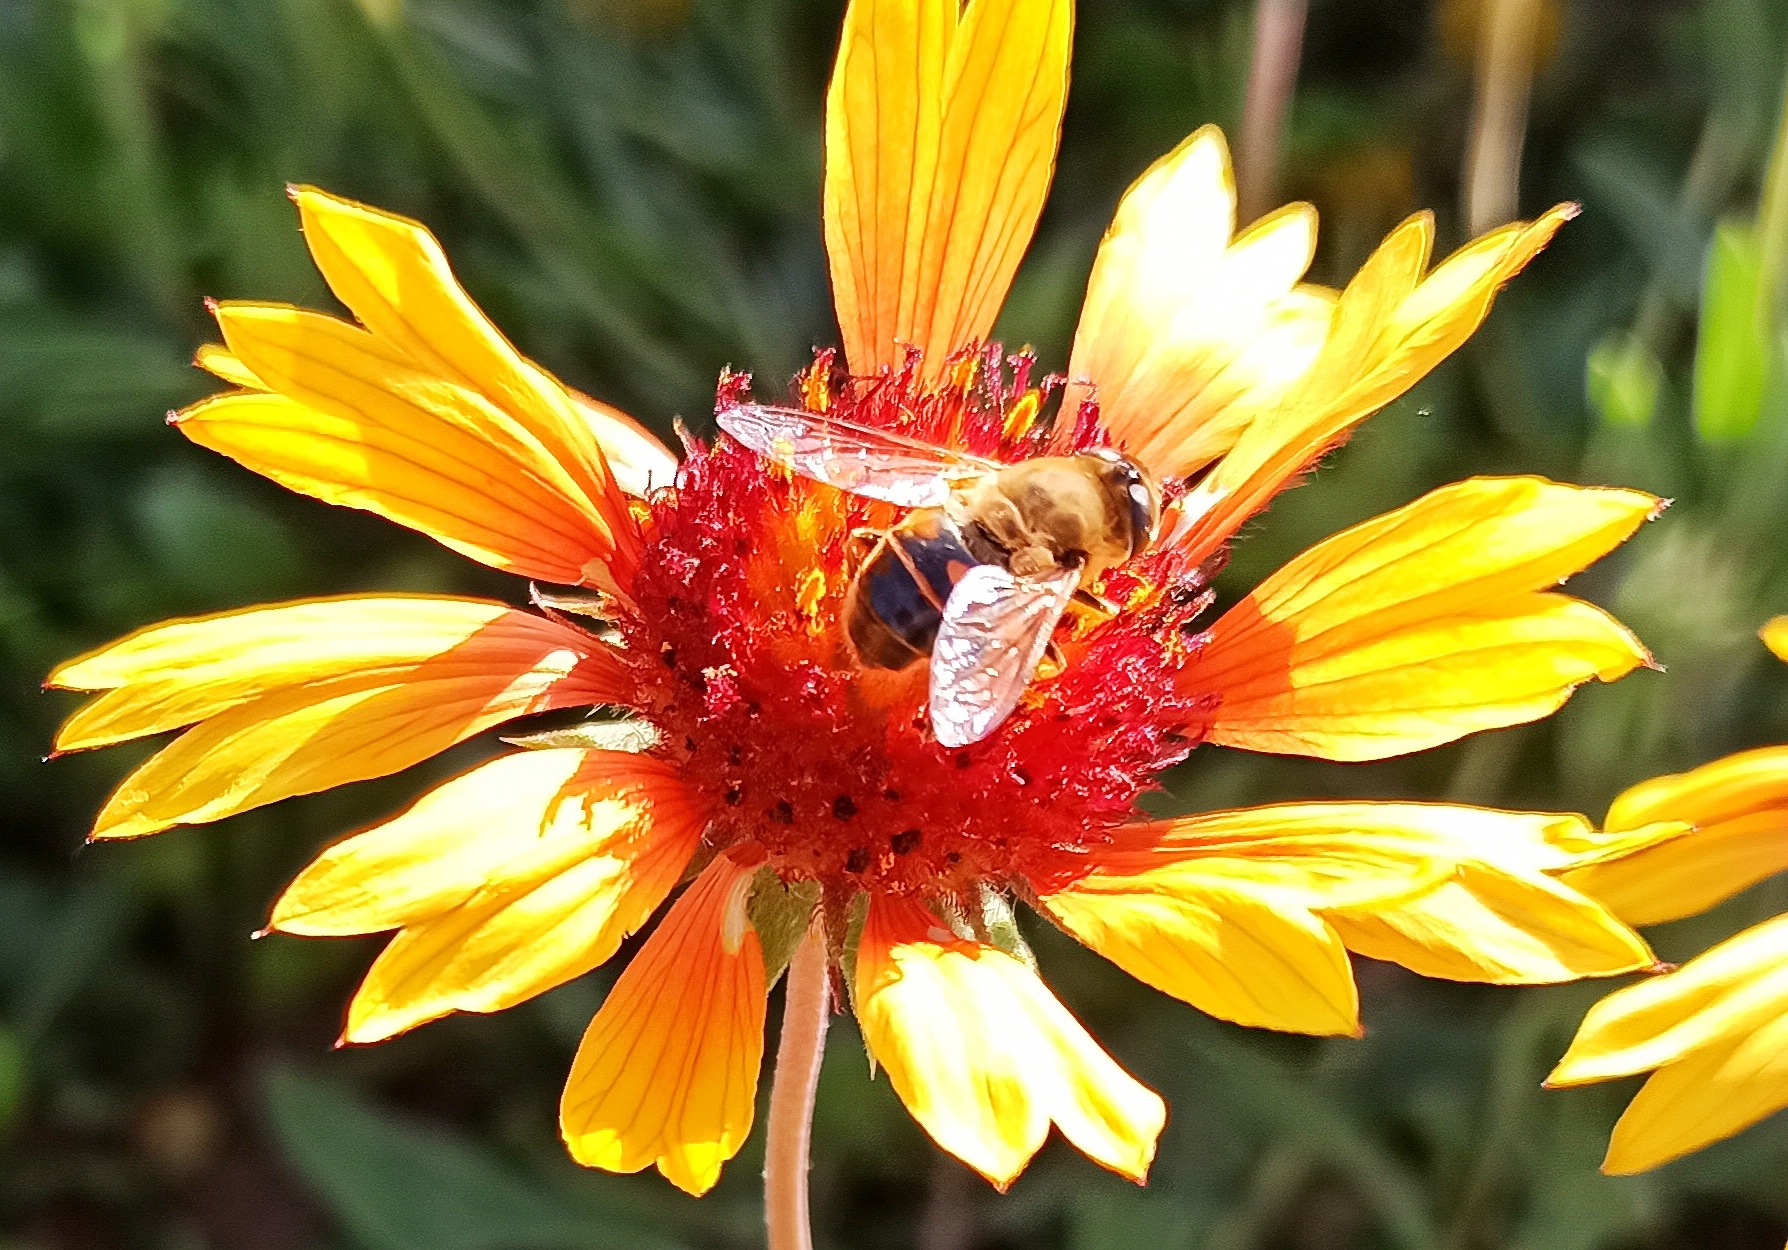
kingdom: Animalia
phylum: Arthropoda
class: Insecta
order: Diptera
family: Syrphidae
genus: Eristalis
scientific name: Eristalis tenax
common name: Drone fly
